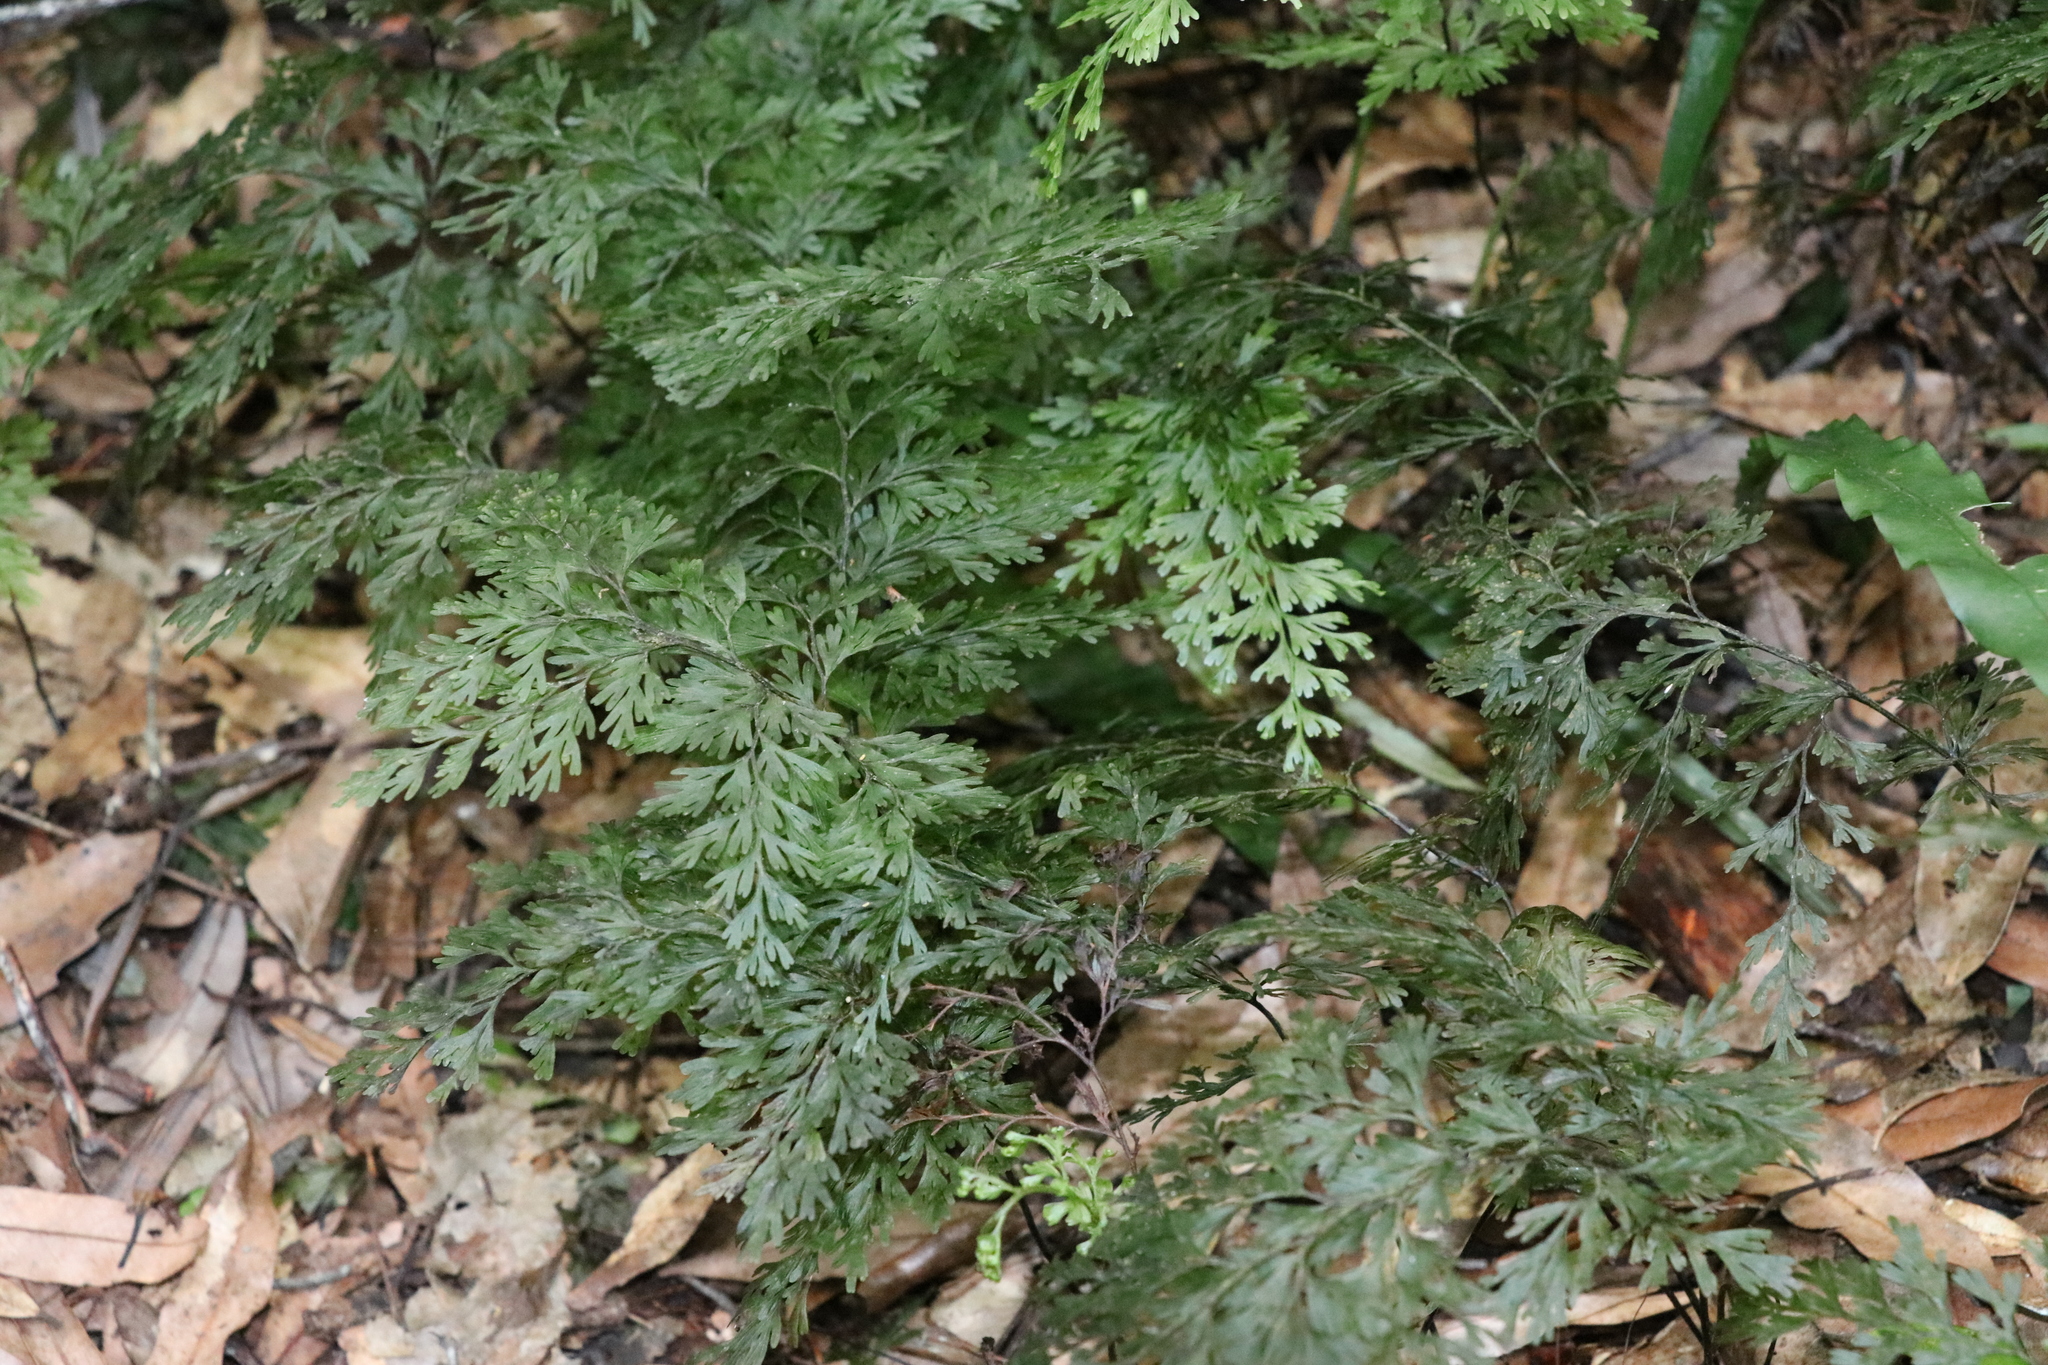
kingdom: Plantae
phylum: Tracheophyta
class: Polypodiopsida
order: Hymenophyllales
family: Hymenophyllaceae
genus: Hymenophyllum
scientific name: Hymenophyllum demissum
